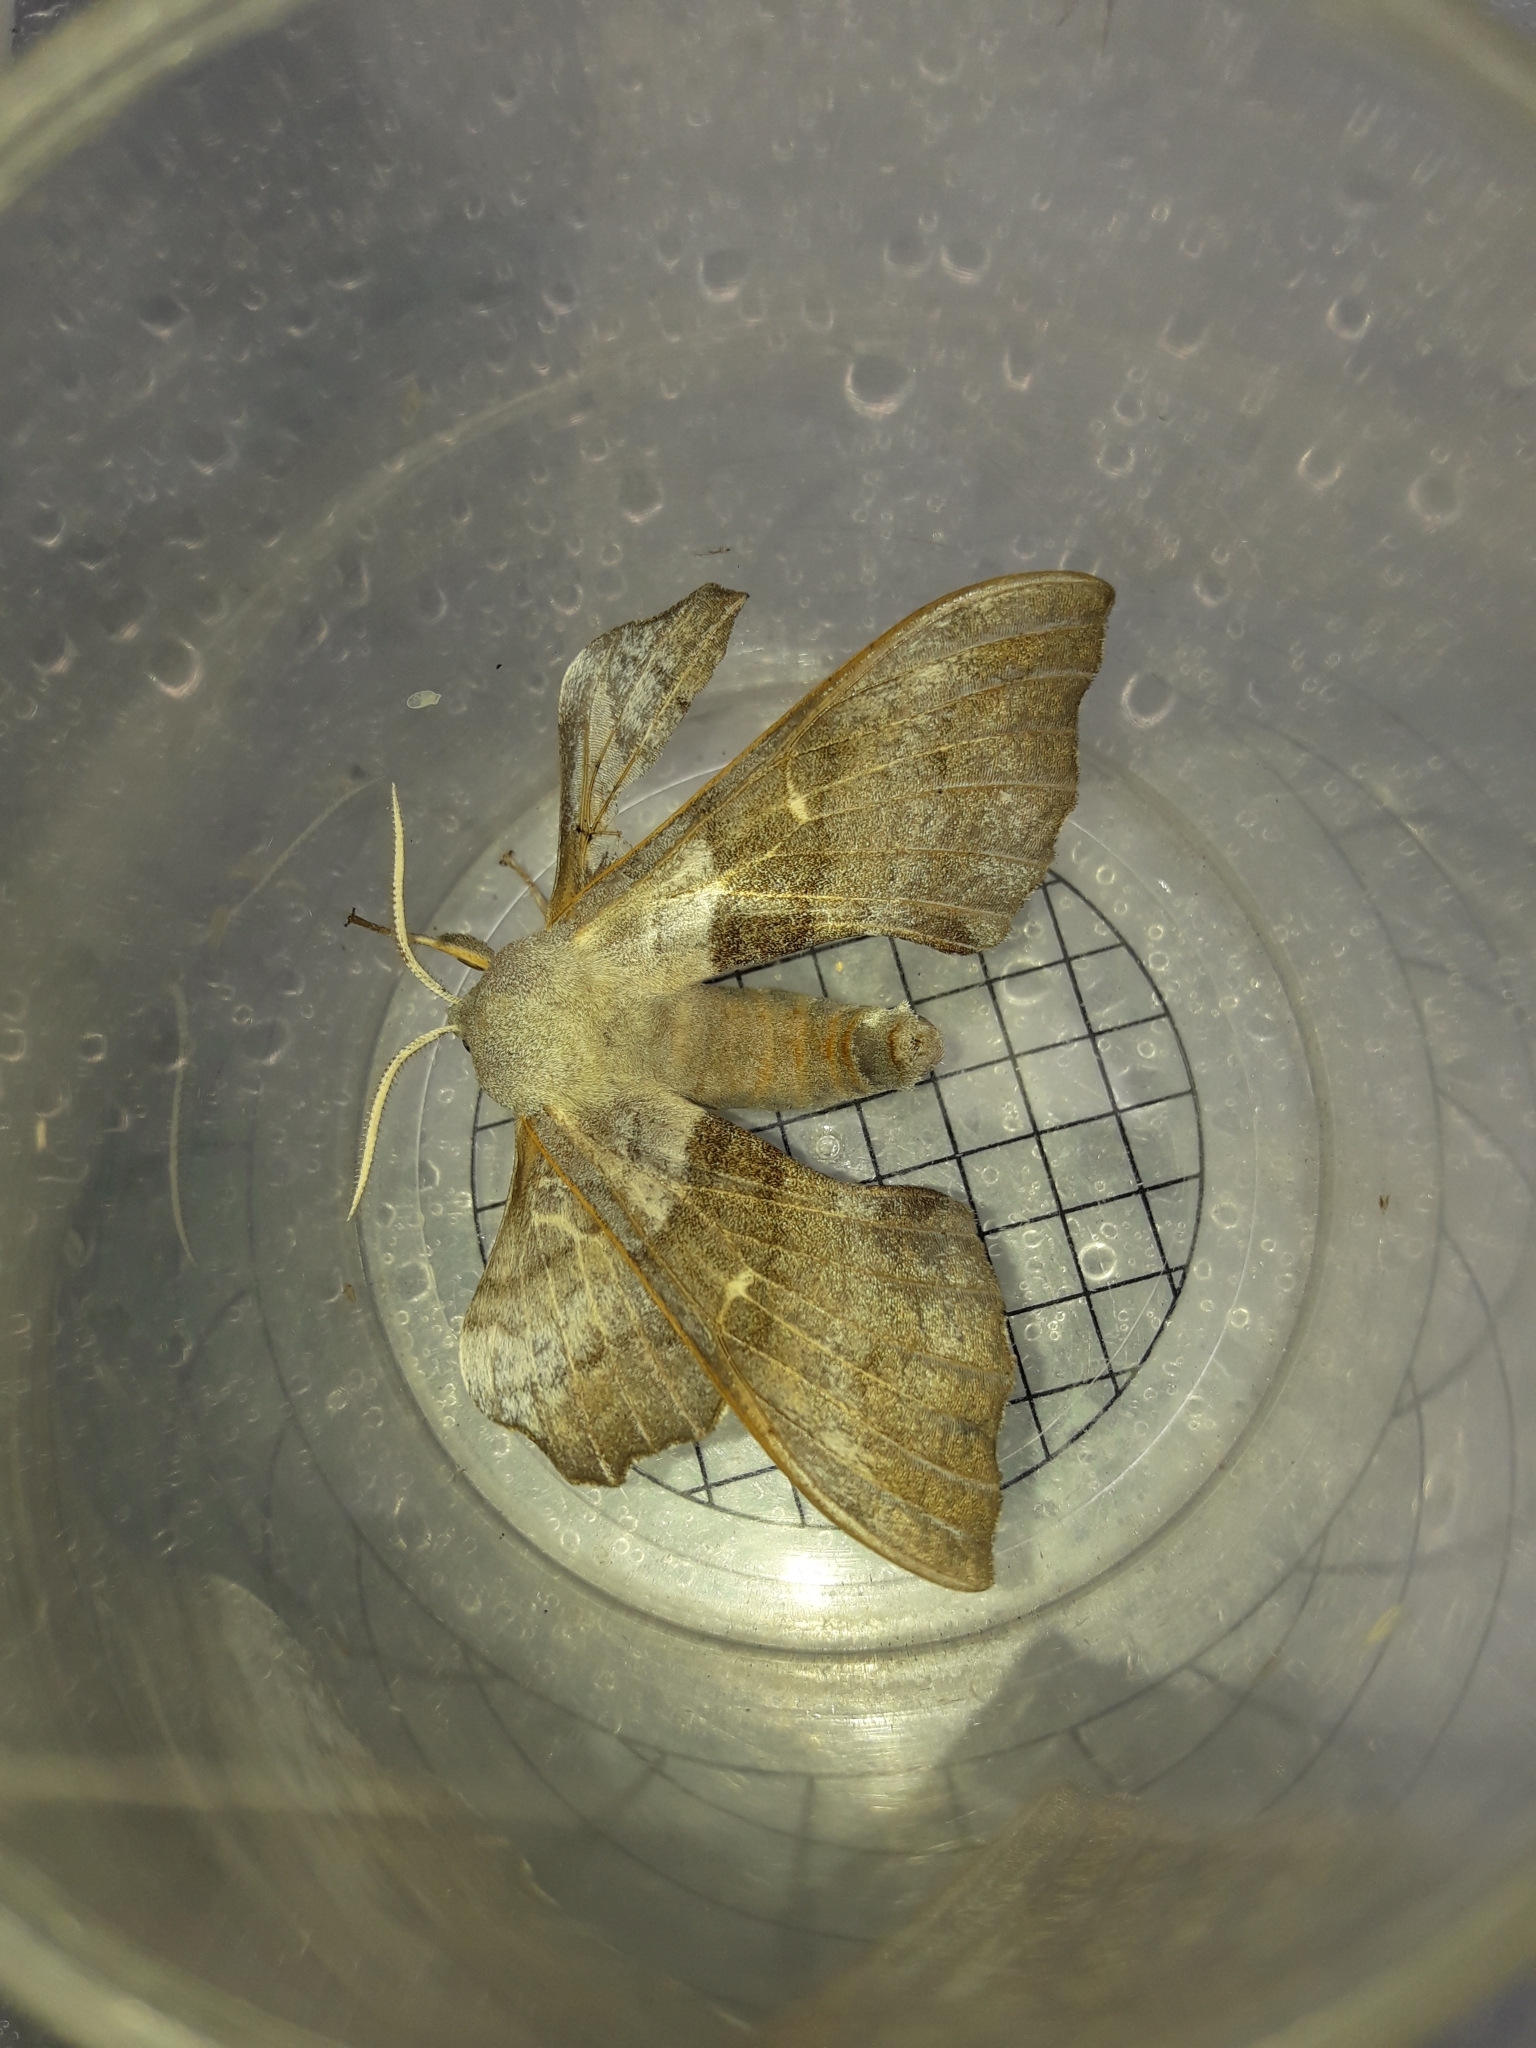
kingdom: Animalia
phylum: Arthropoda
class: Insecta
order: Lepidoptera
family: Sphingidae
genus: Laothoe
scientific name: Laothoe populi
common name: Poplar hawk-moth
